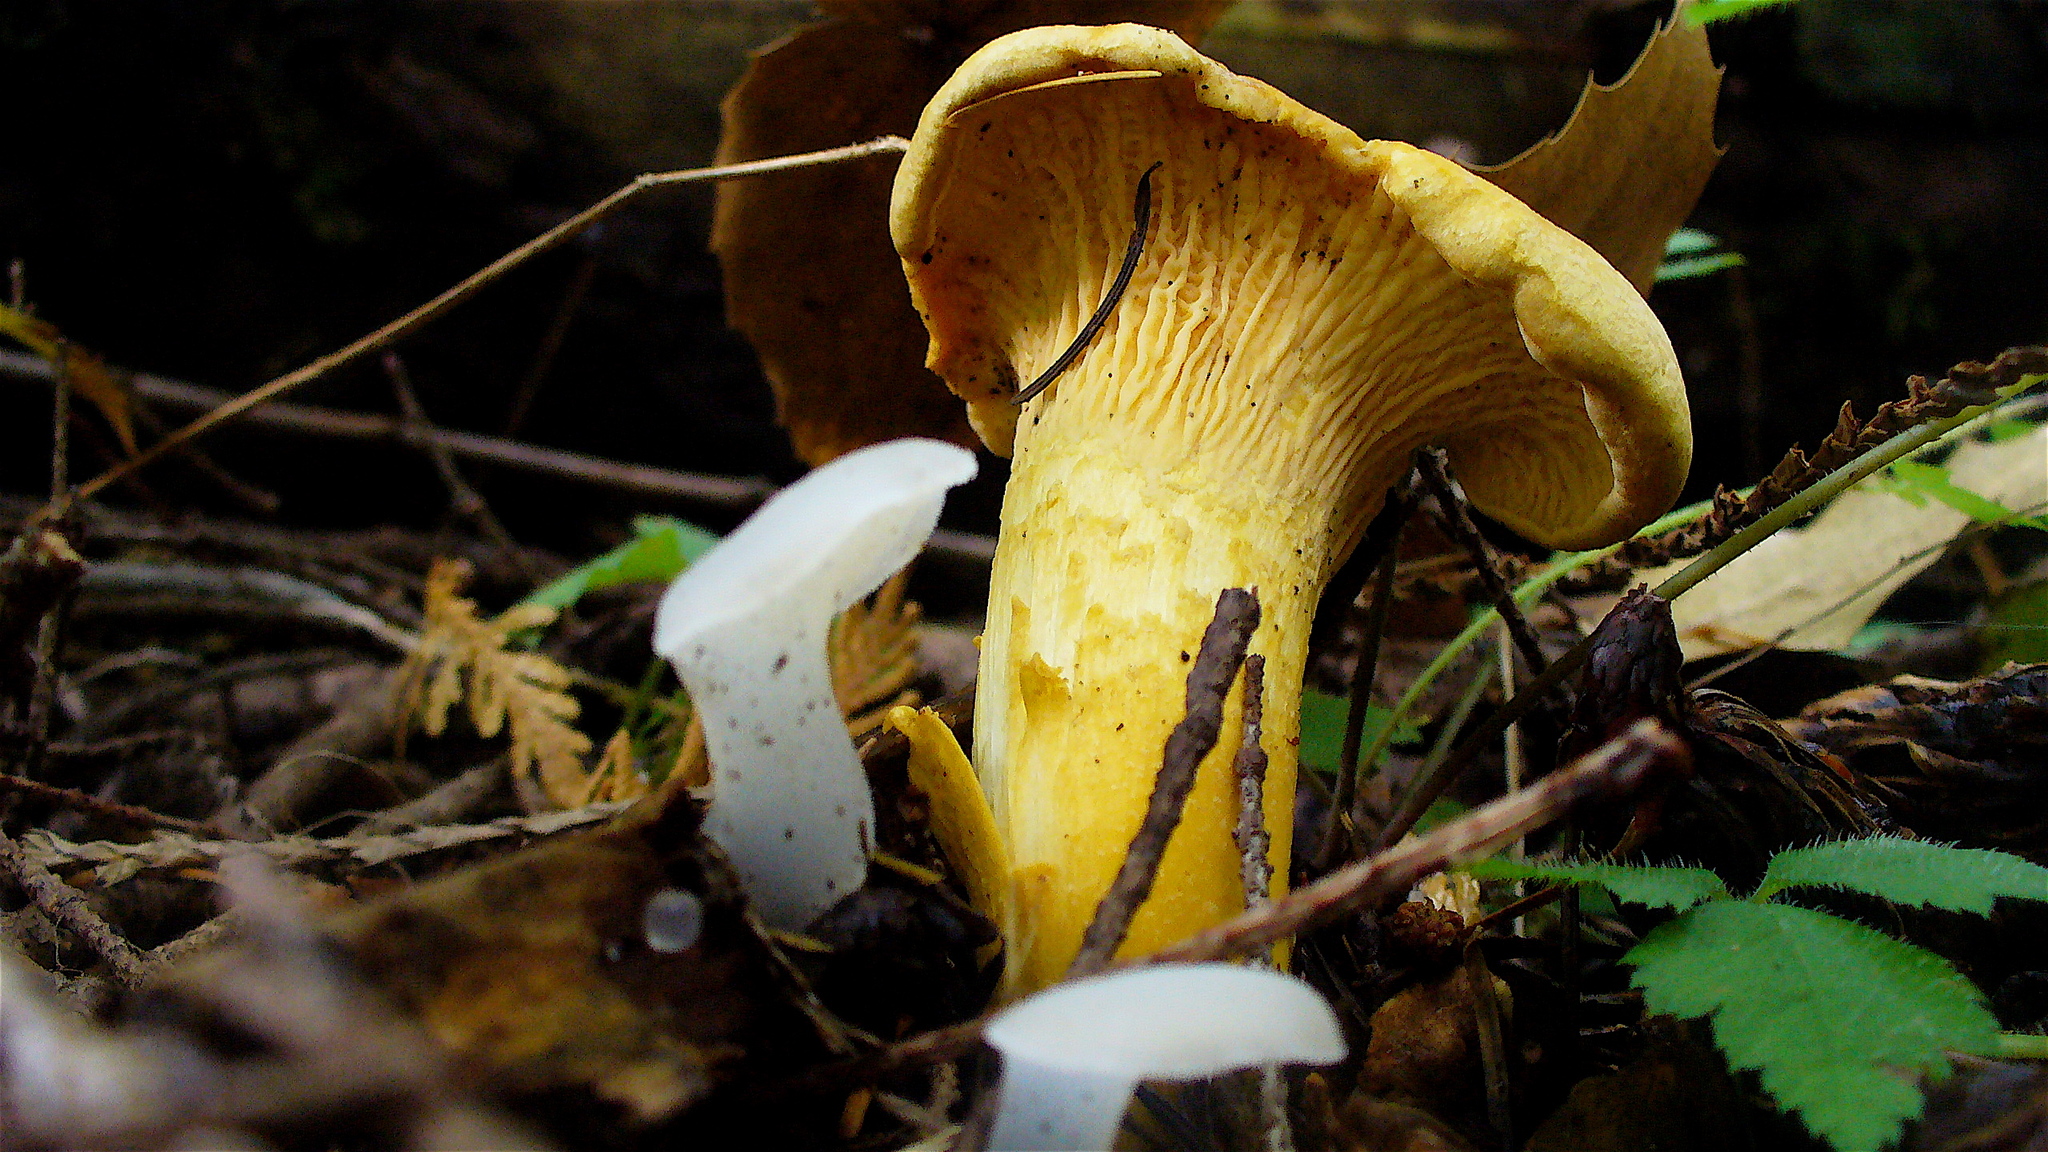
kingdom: Fungi
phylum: Basidiomycota
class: Agaricomycetes
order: Auriculariales
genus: Pseudohydnum
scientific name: Pseudohydnum gelatinosum
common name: Jelly tongue
